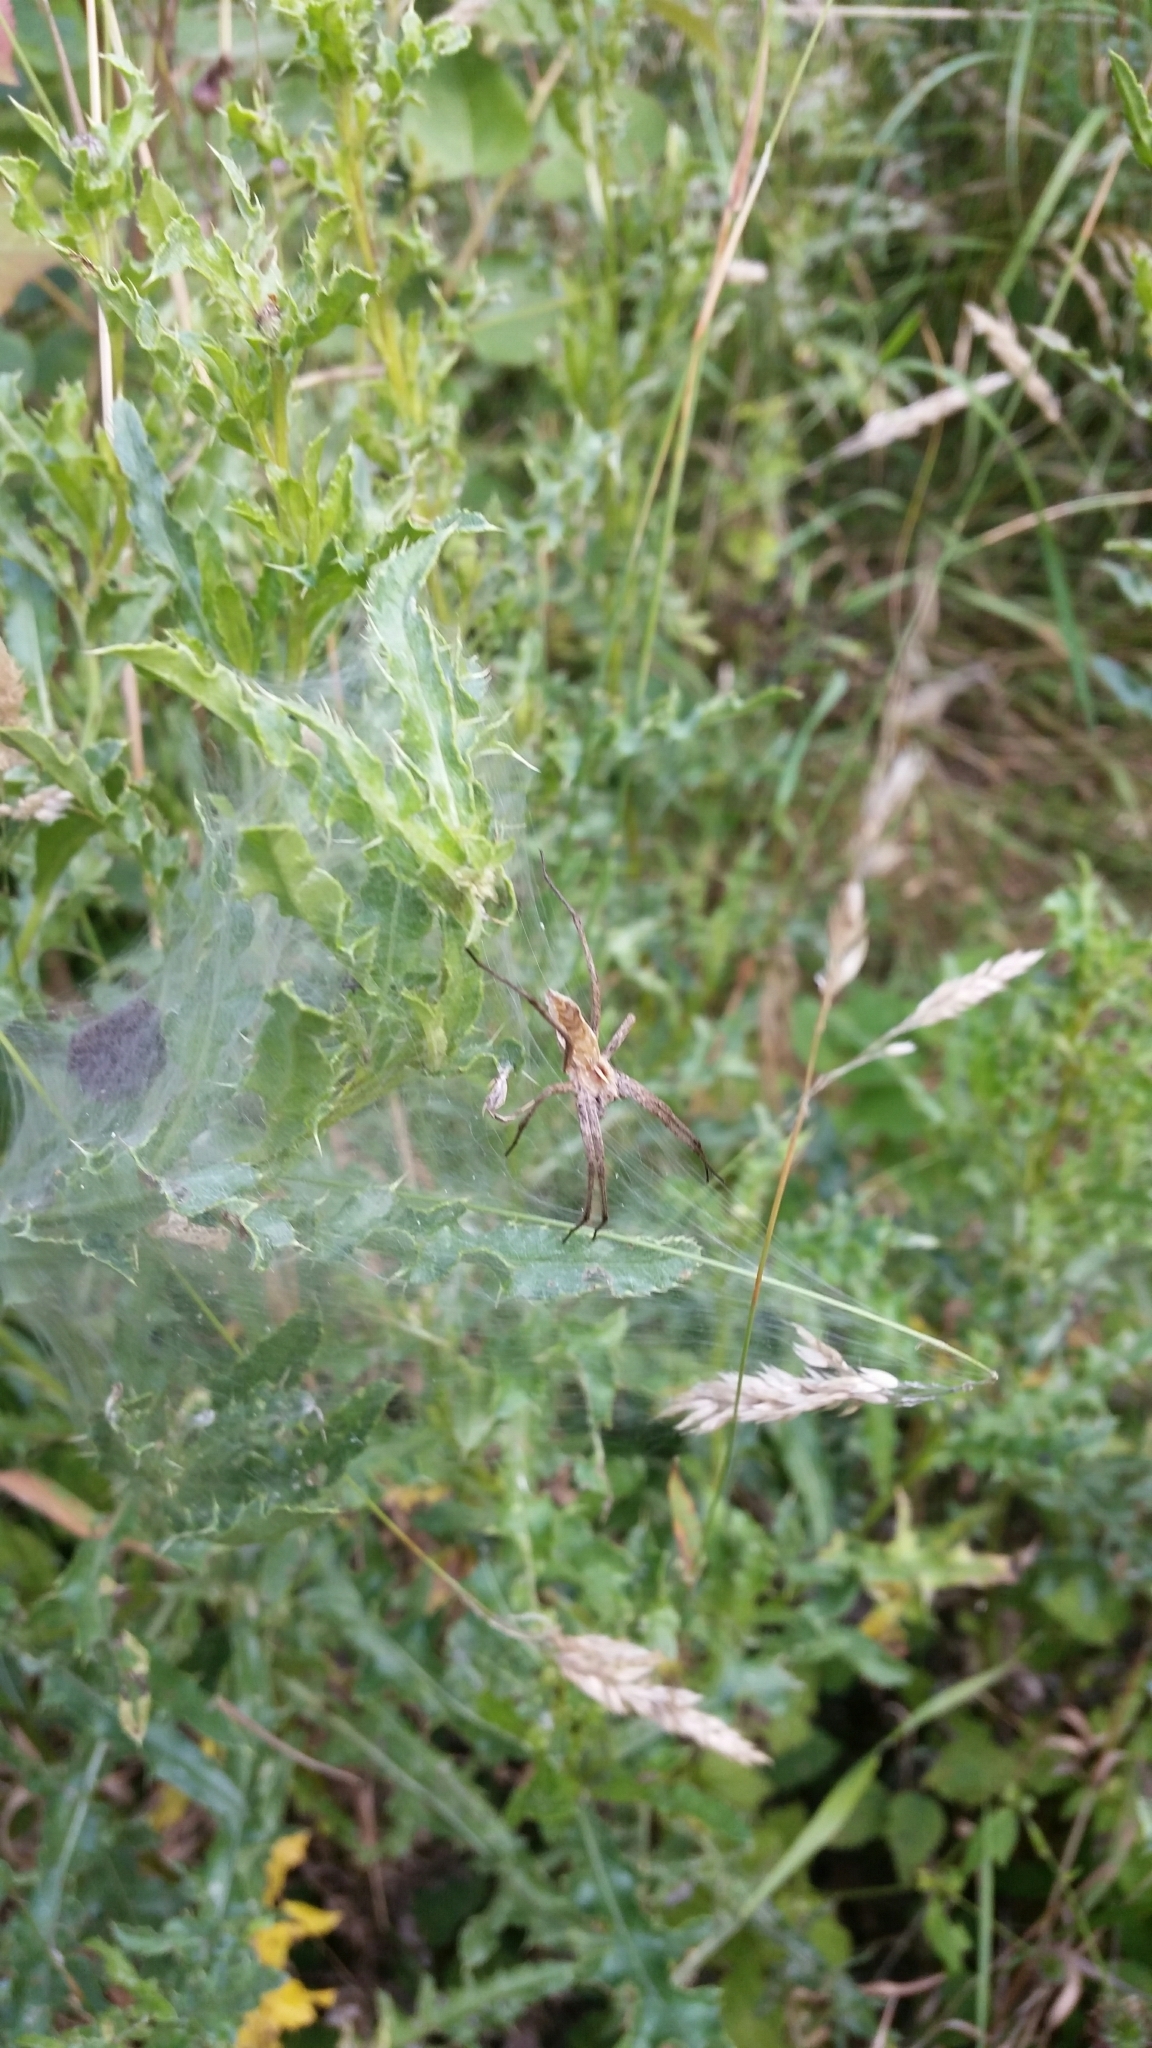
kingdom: Animalia
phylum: Arthropoda
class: Arachnida
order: Araneae
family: Pisauridae
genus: Pisaura
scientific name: Pisaura mirabilis
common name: Tent spider
